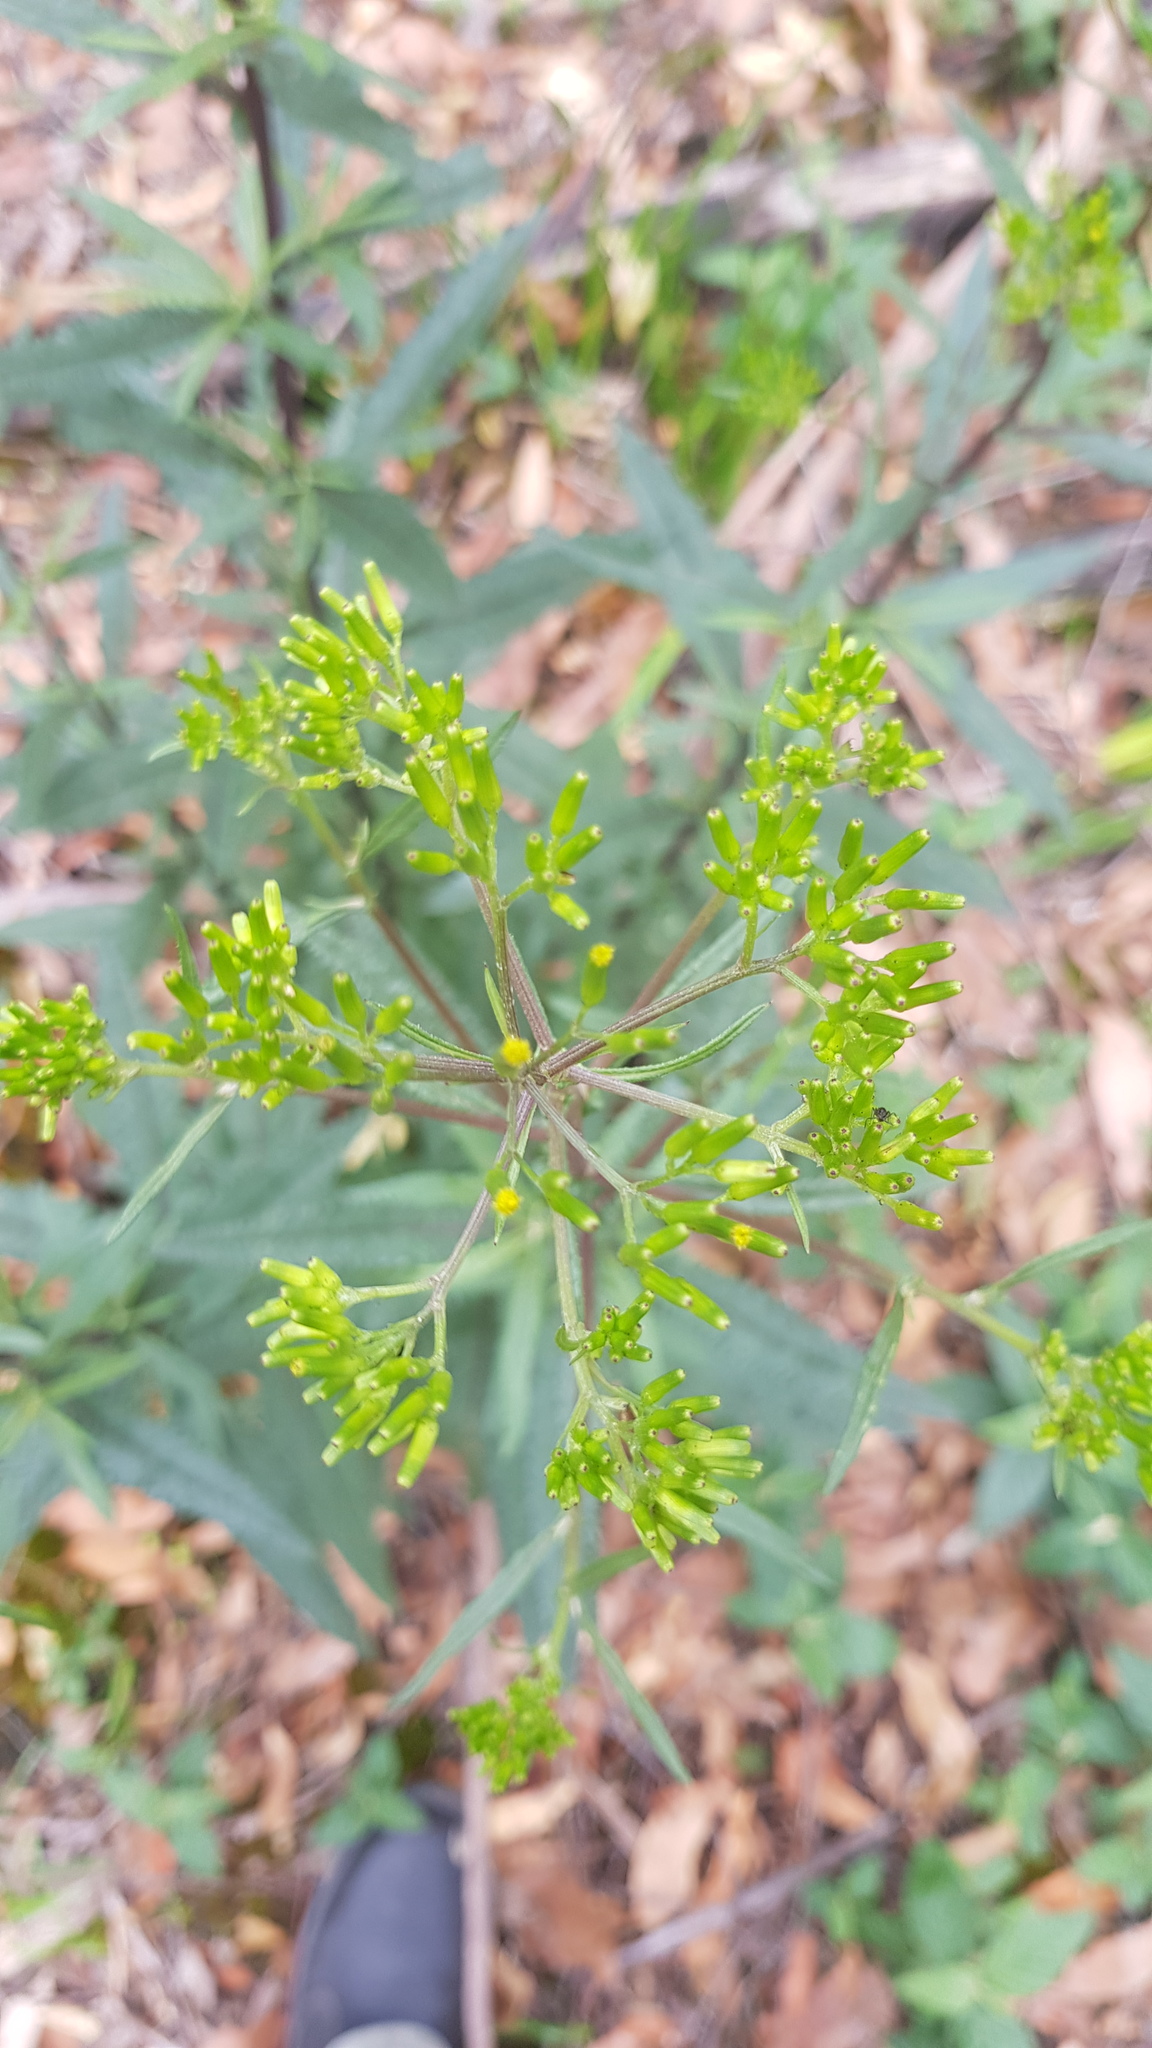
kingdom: Plantae
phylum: Tracheophyta
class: Magnoliopsida
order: Asterales
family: Asteraceae
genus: Senecio
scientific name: Senecio minimus
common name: Toothed fireweed
